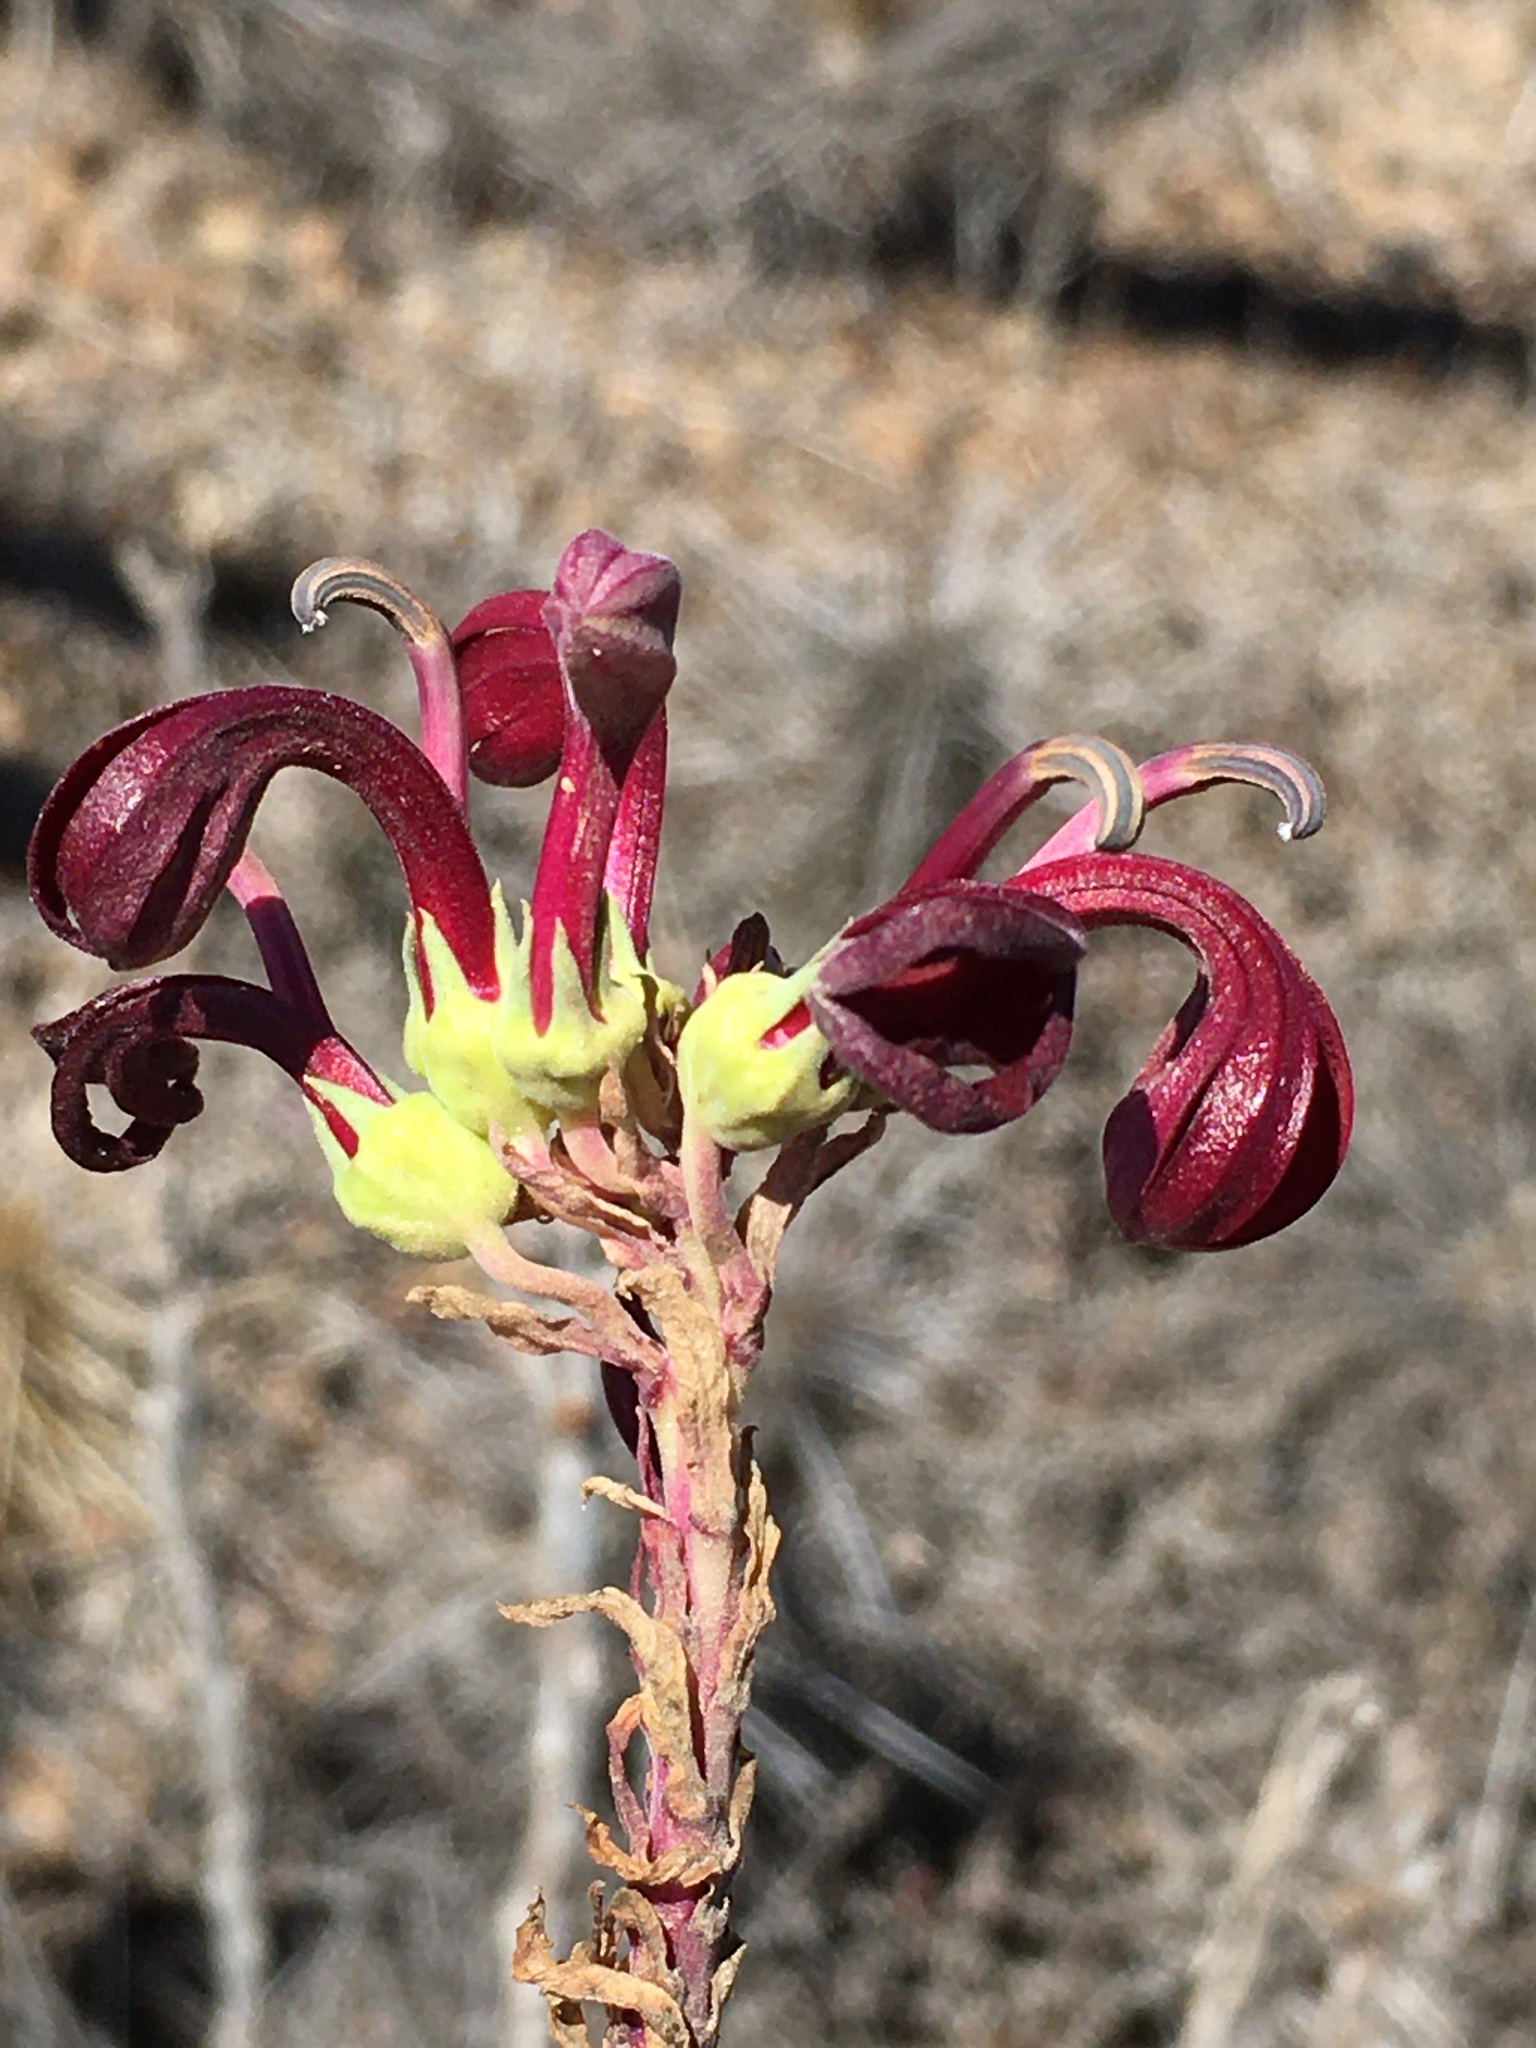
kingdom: Plantae
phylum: Tracheophyta
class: Magnoliopsida
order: Asterales
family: Campanulaceae
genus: Lobelia
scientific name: Lobelia polyphylla
